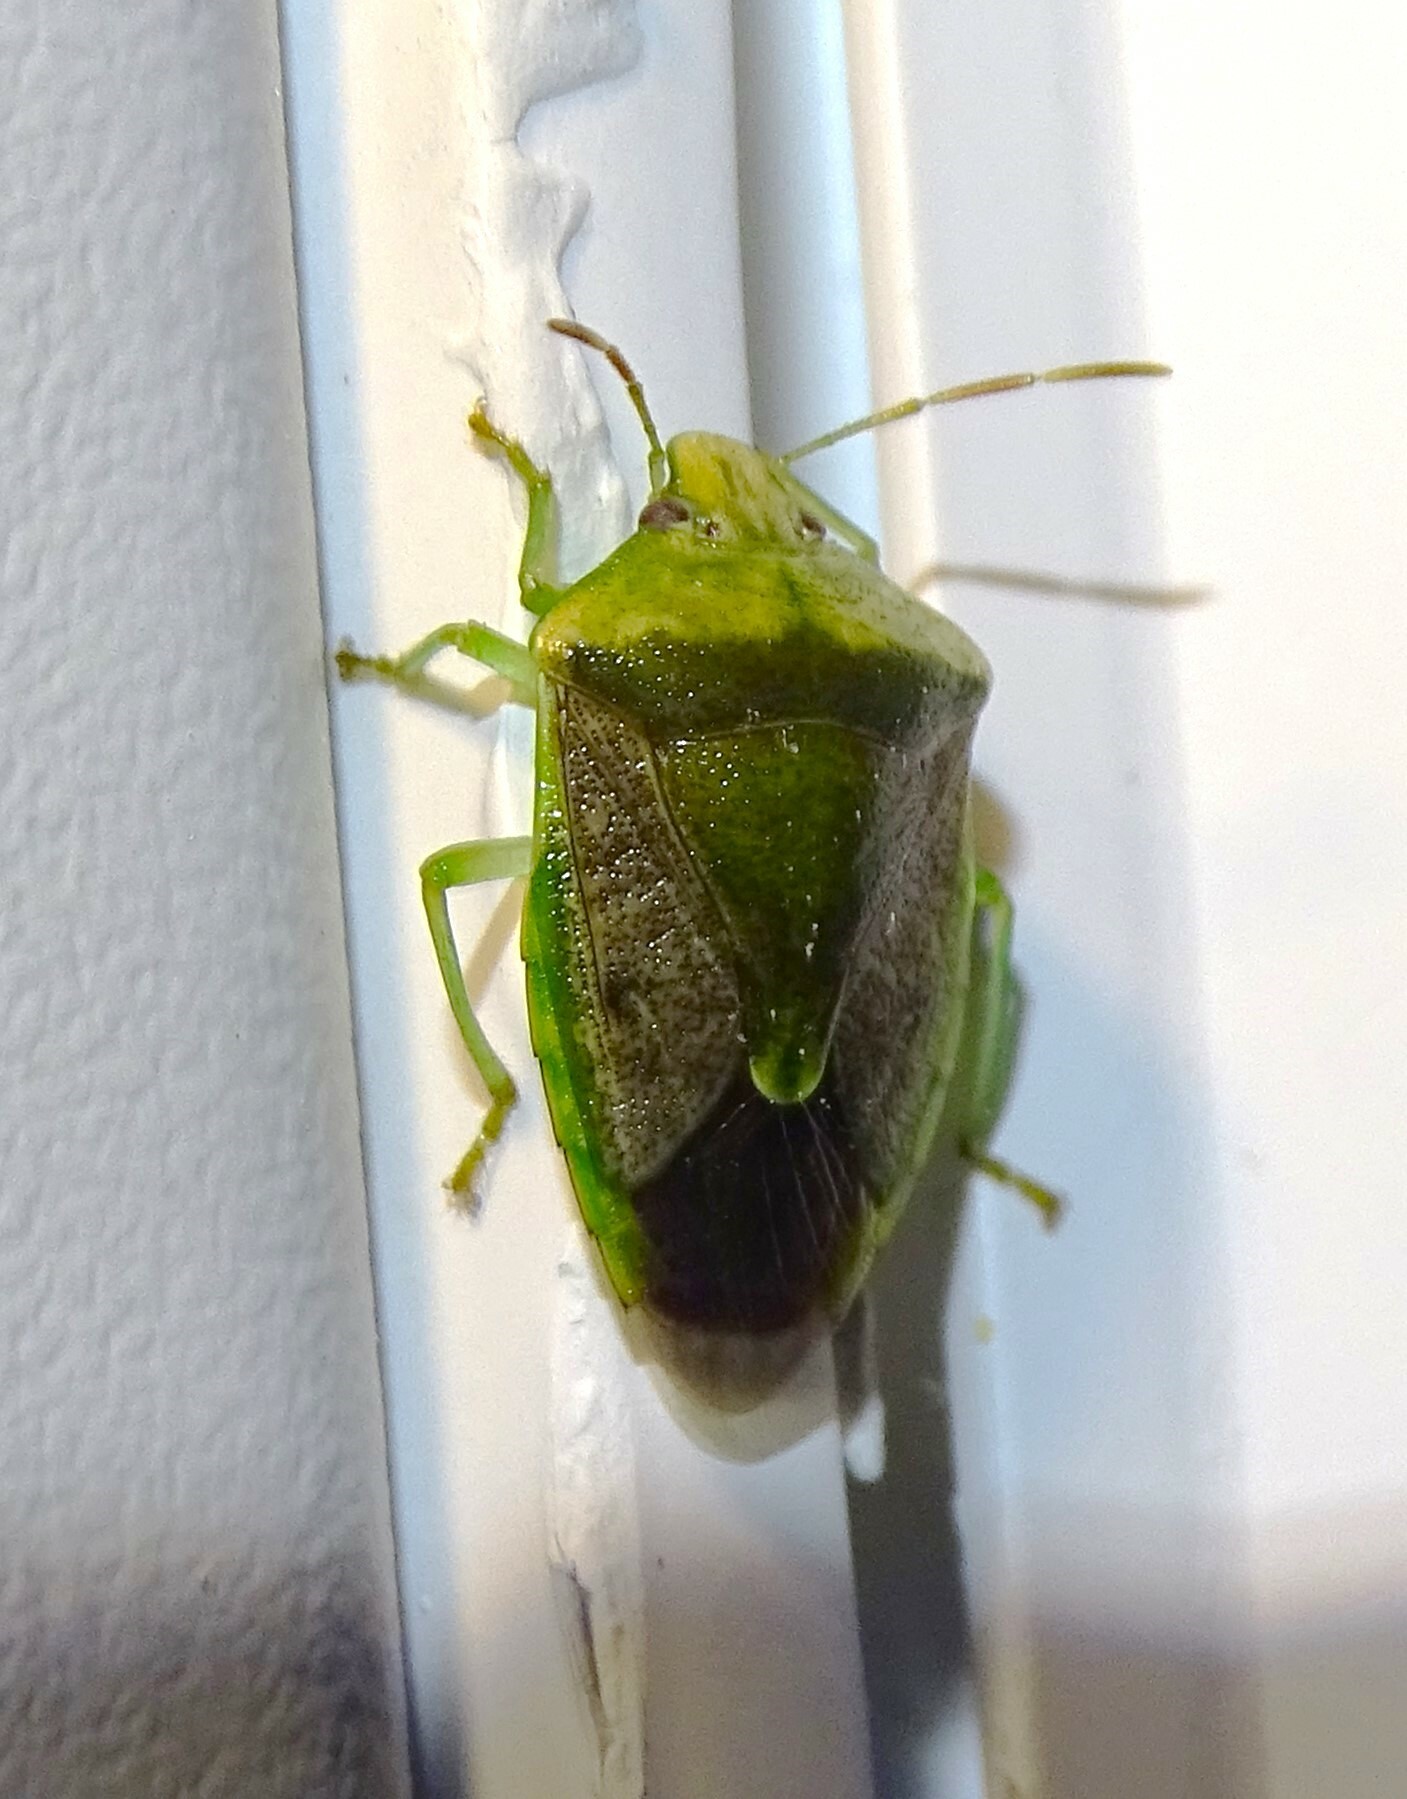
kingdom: Animalia
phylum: Arthropoda
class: Insecta
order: Hemiptera
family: Pentatomidae
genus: Banasa
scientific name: Banasa dimidiata
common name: Green burgundy stink bug
